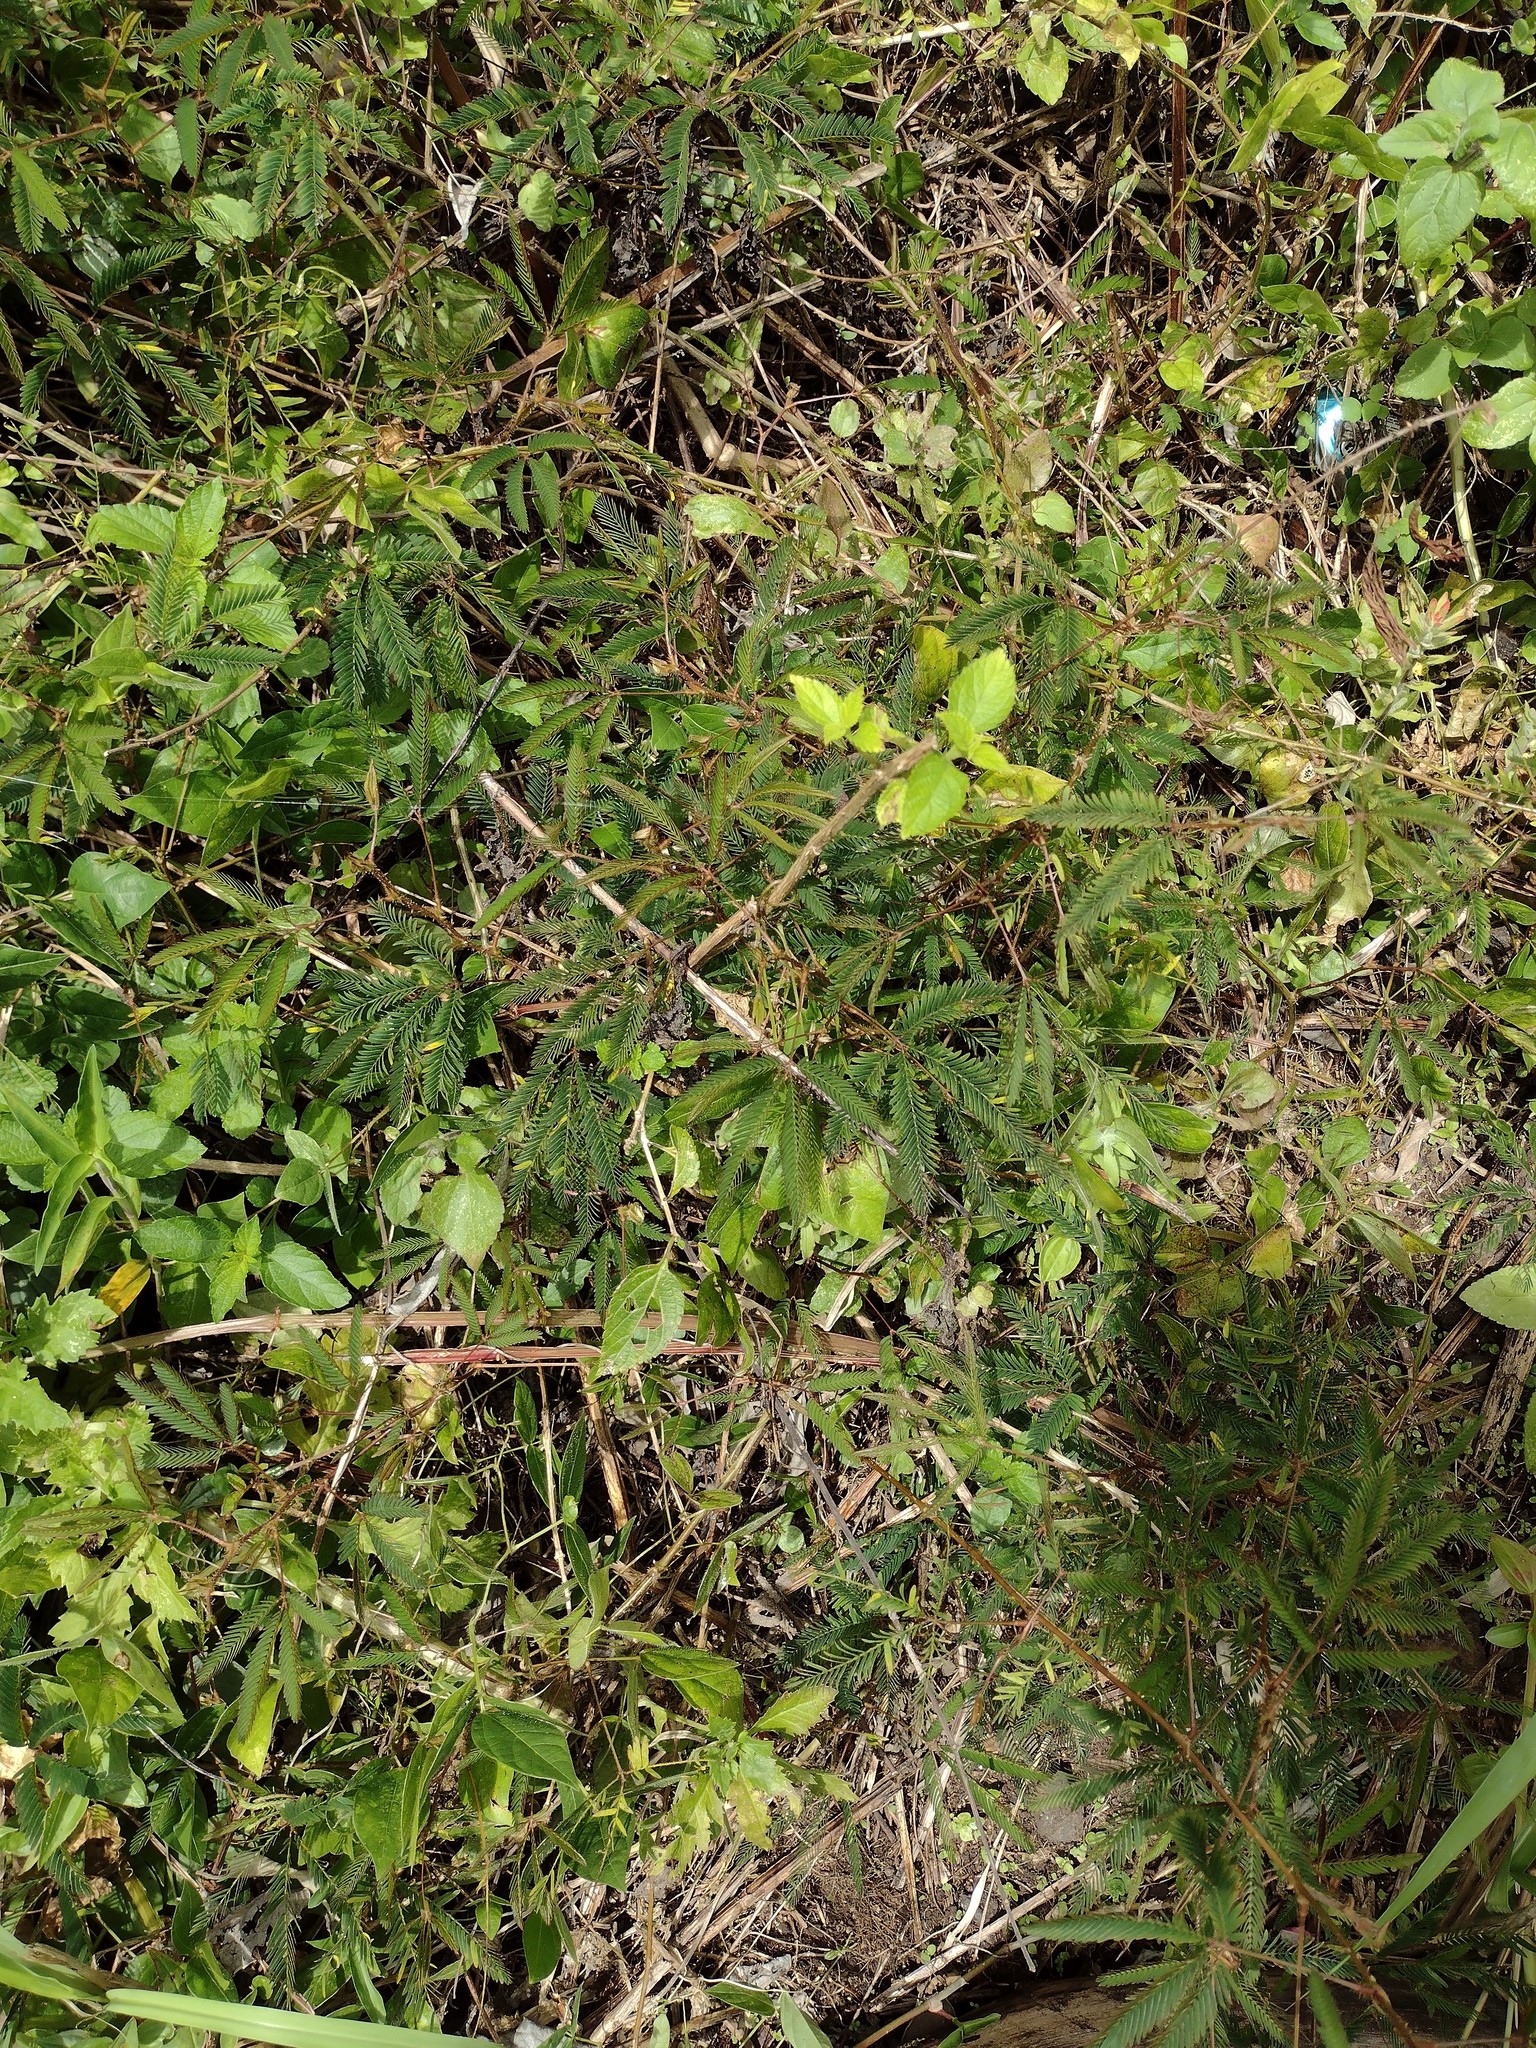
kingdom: Plantae
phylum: Tracheophyta
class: Magnoliopsida
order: Fabales
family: Fabaceae
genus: Mimosa
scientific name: Mimosa pudica
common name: Sensitive plant
